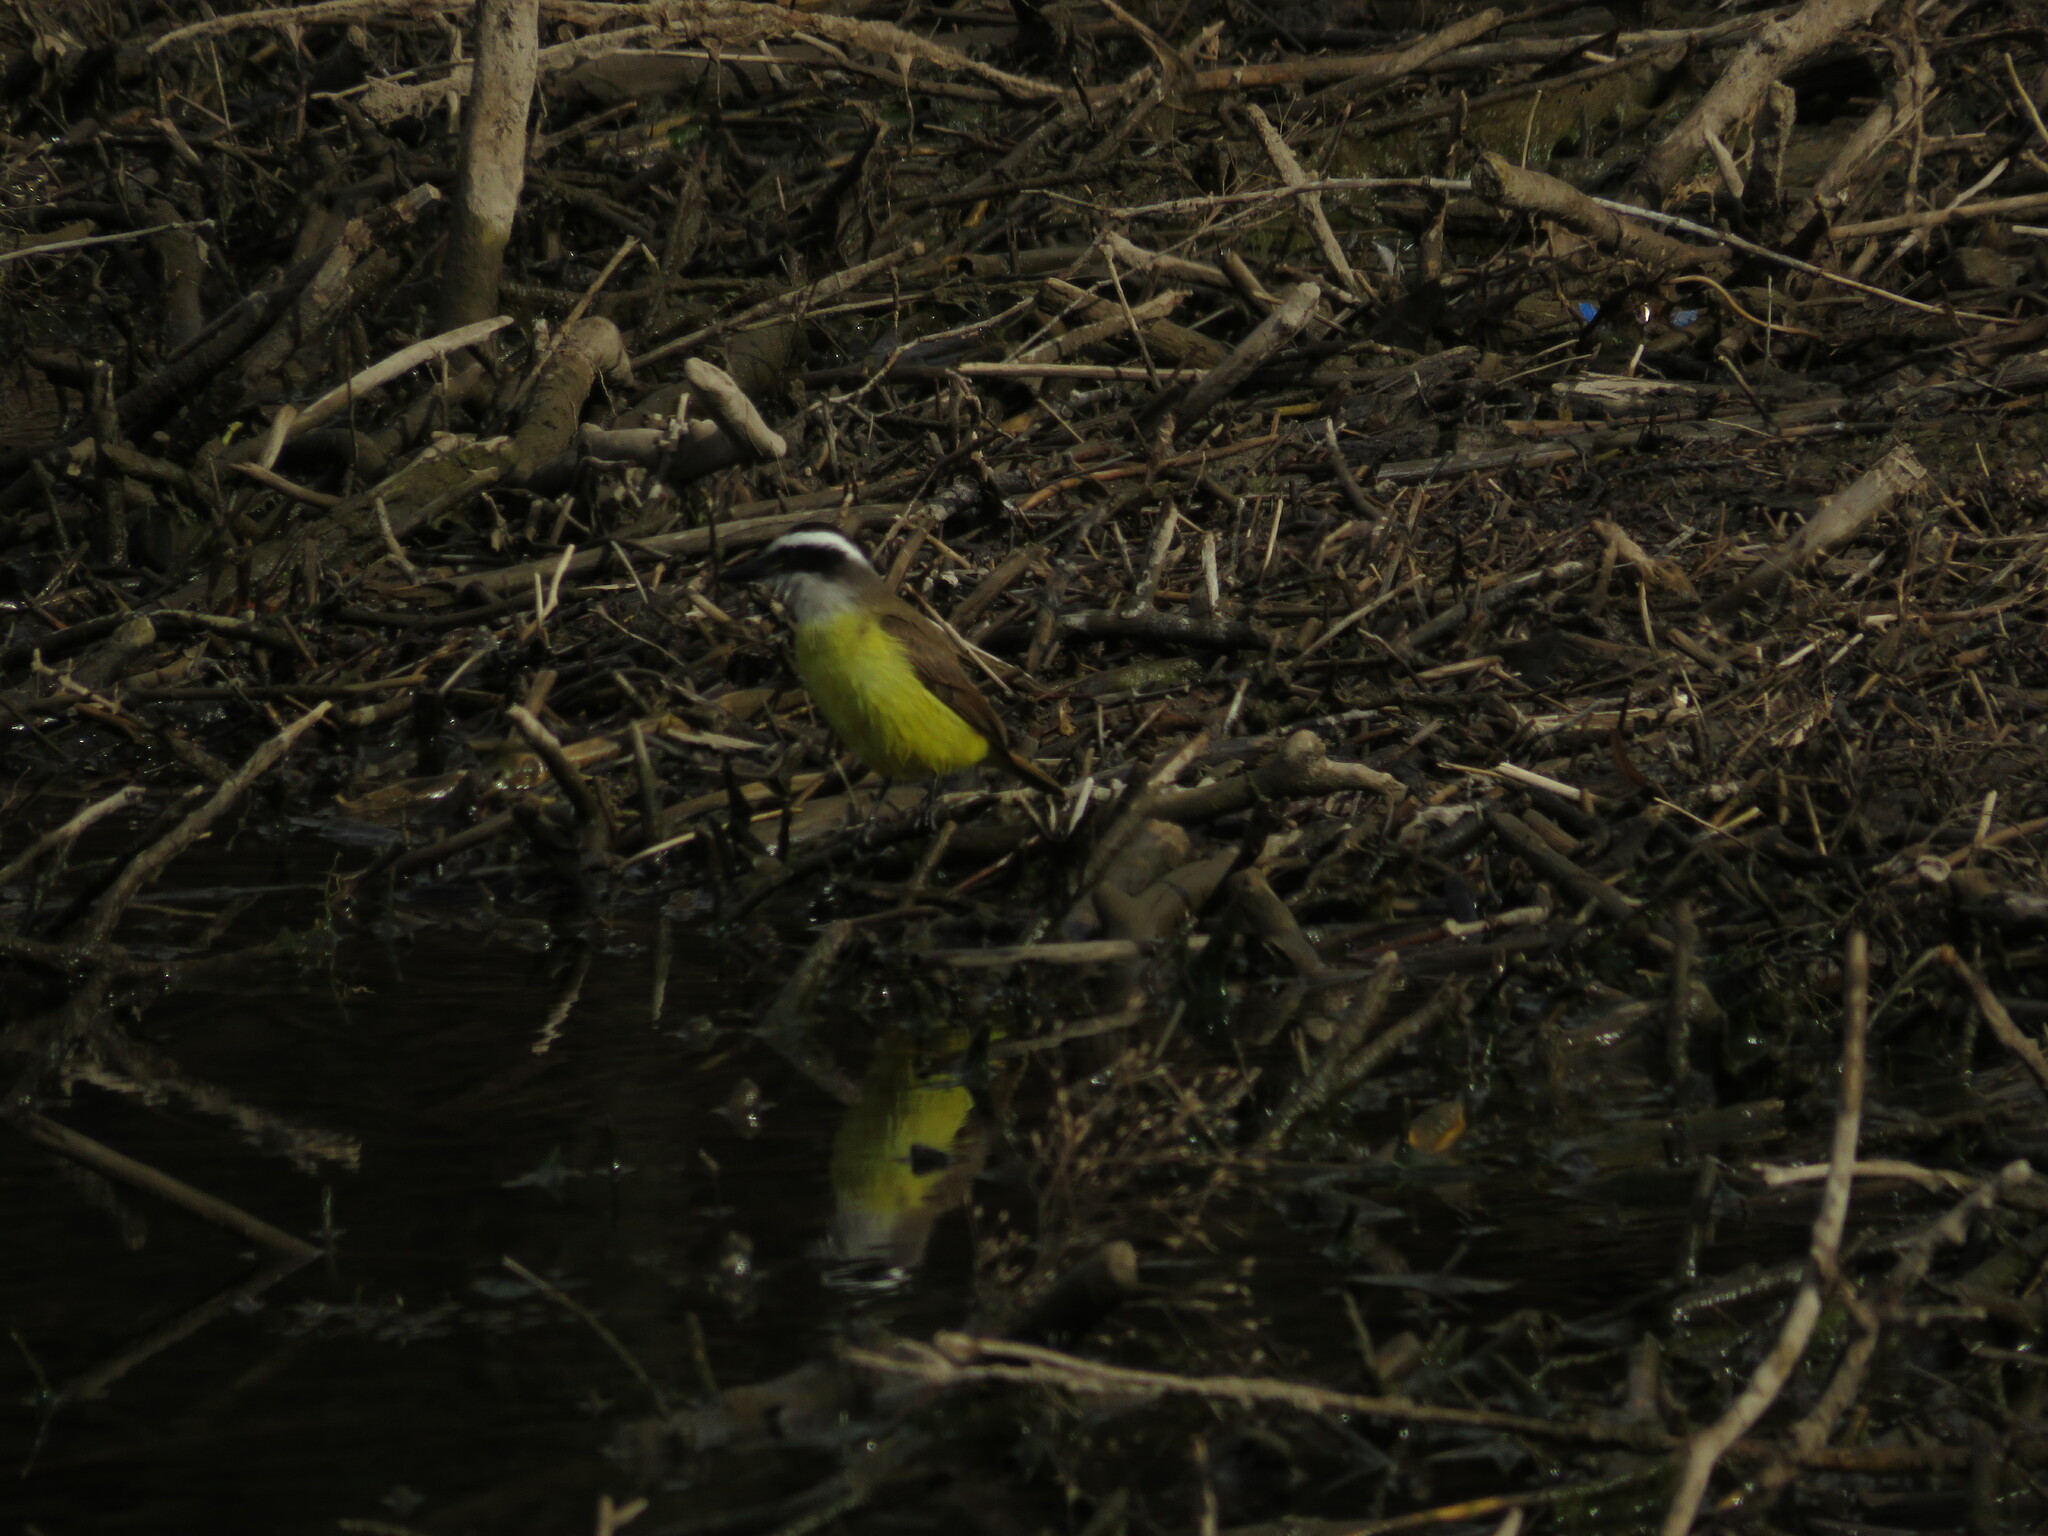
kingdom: Animalia
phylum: Chordata
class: Aves
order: Passeriformes
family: Tyrannidae
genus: Pitangus
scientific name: Pitangus sulphuratus
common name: Great kiskadee
